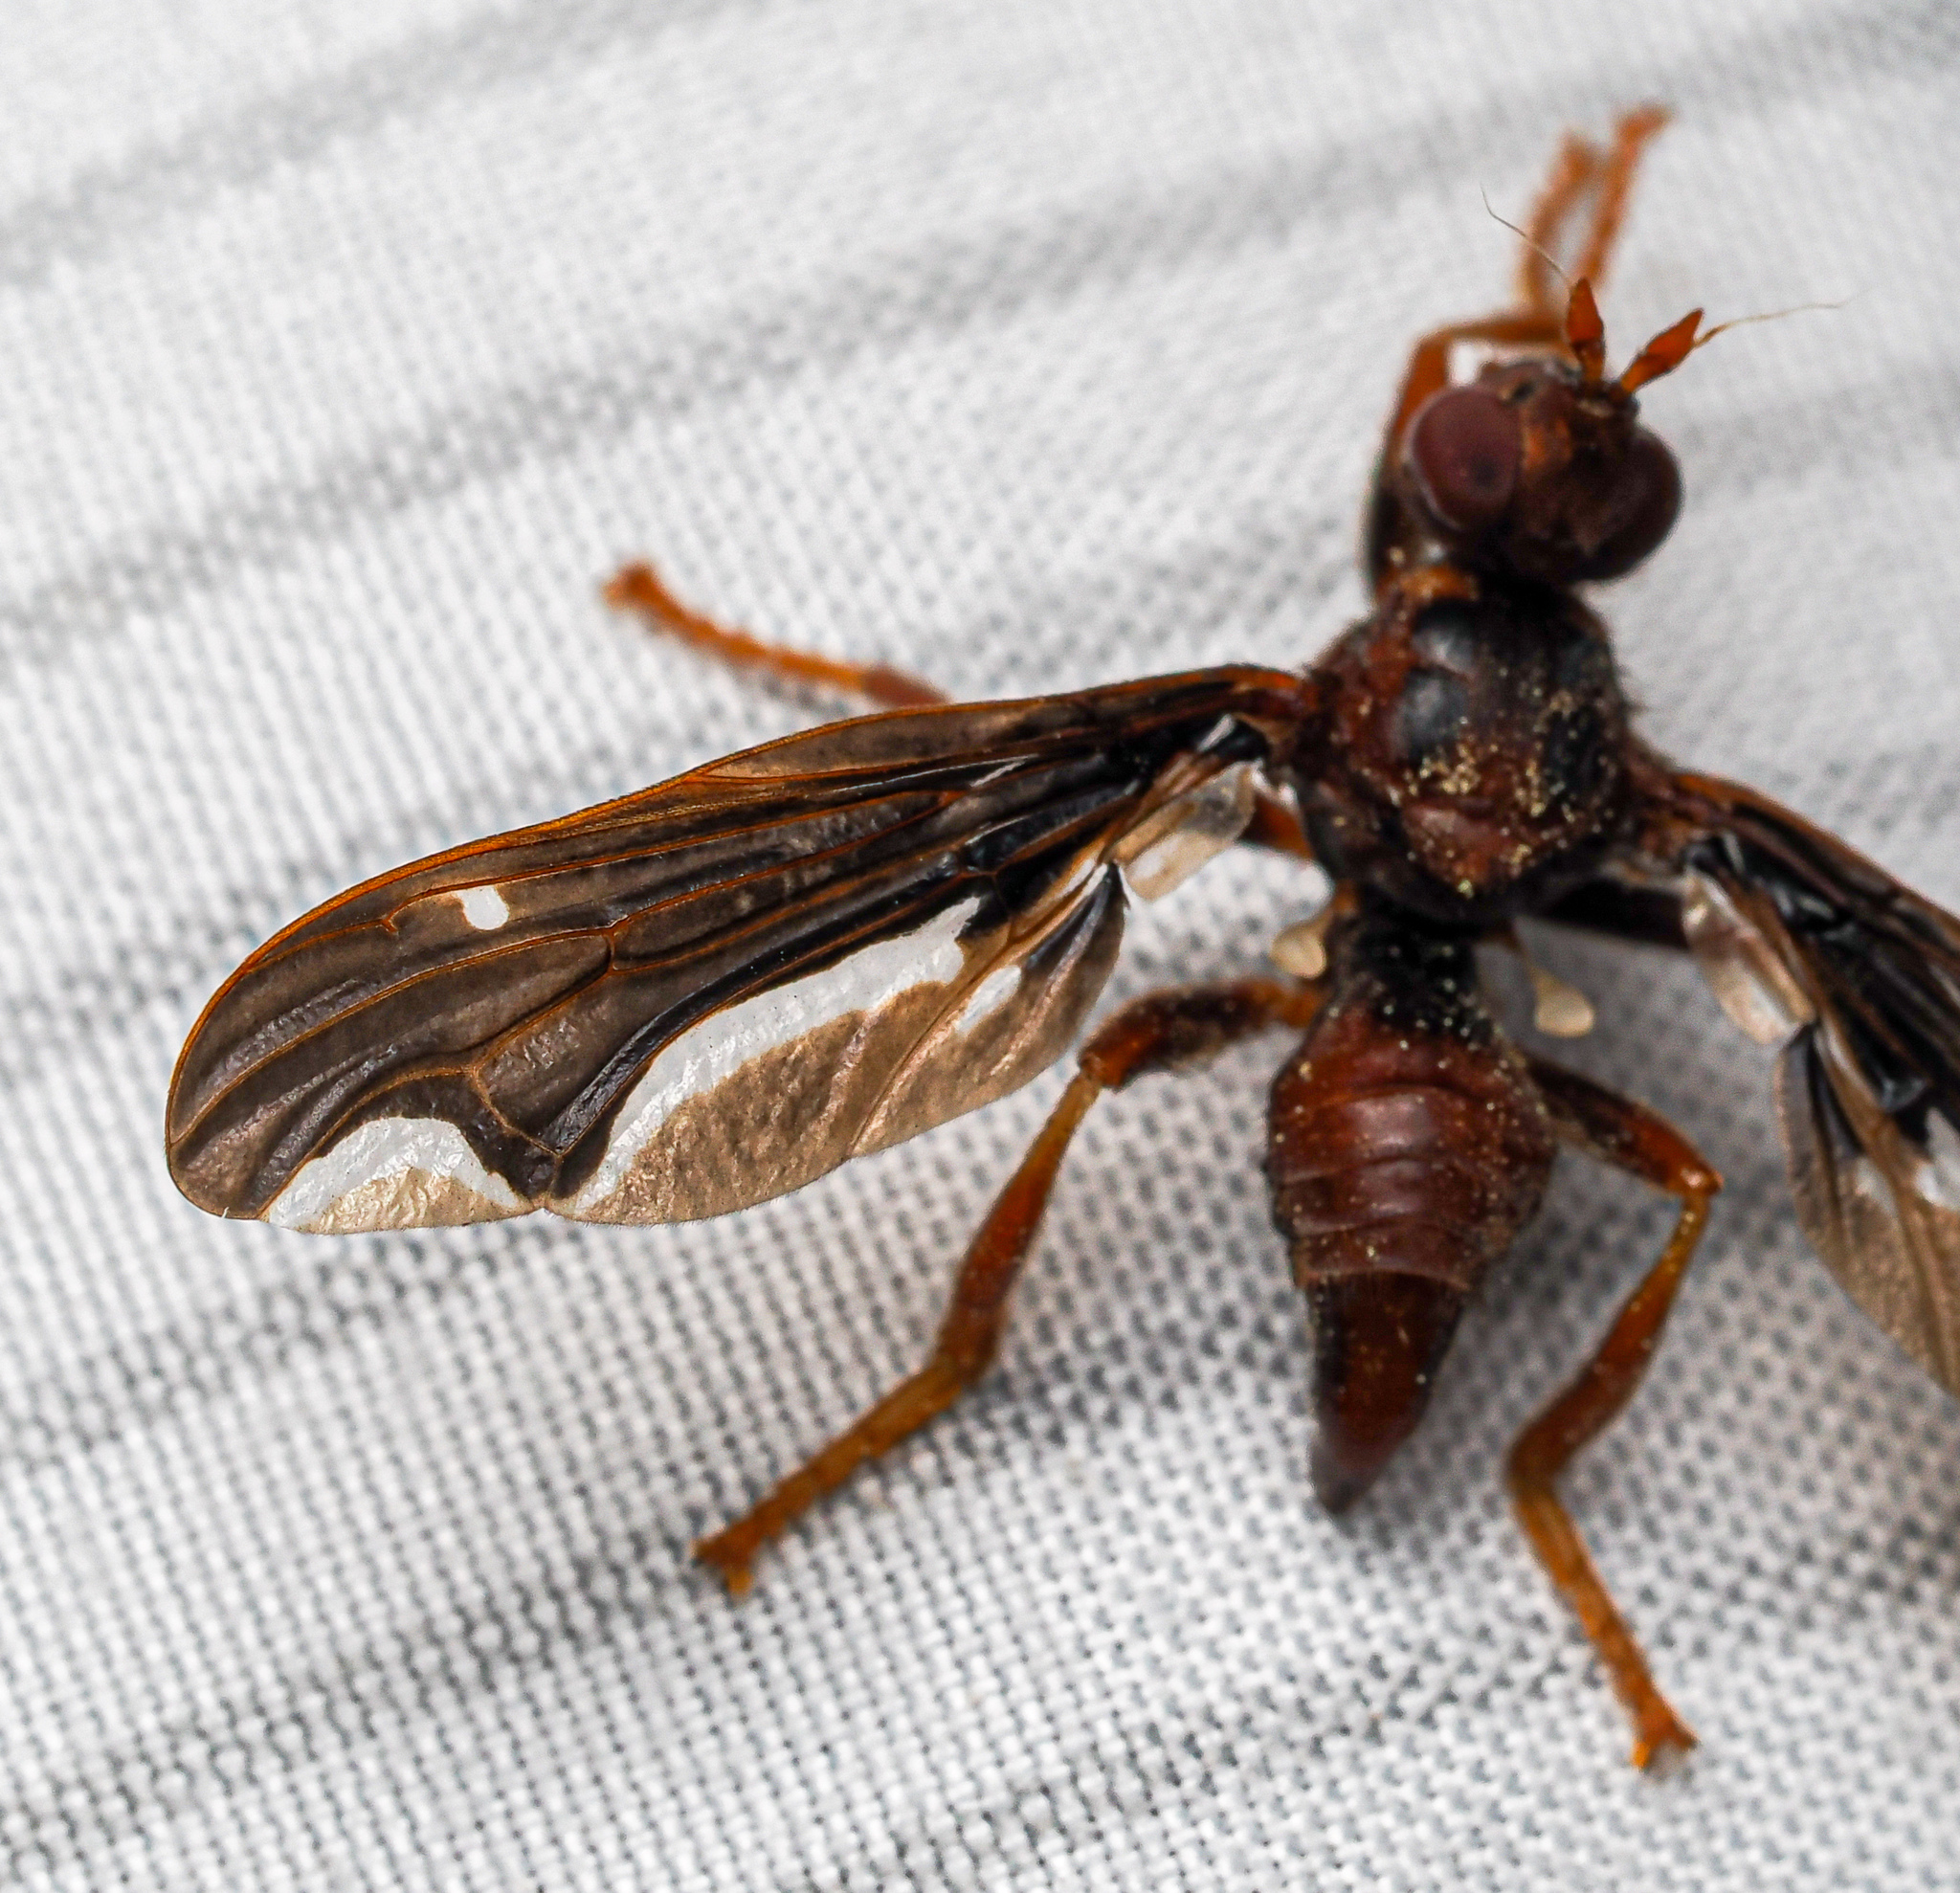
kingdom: Animalia
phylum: Arthropoda
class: Insecta
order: Diptera
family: Pyrgotidae
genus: Pyrgota
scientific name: Pyrgota undata
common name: Waved light fly
